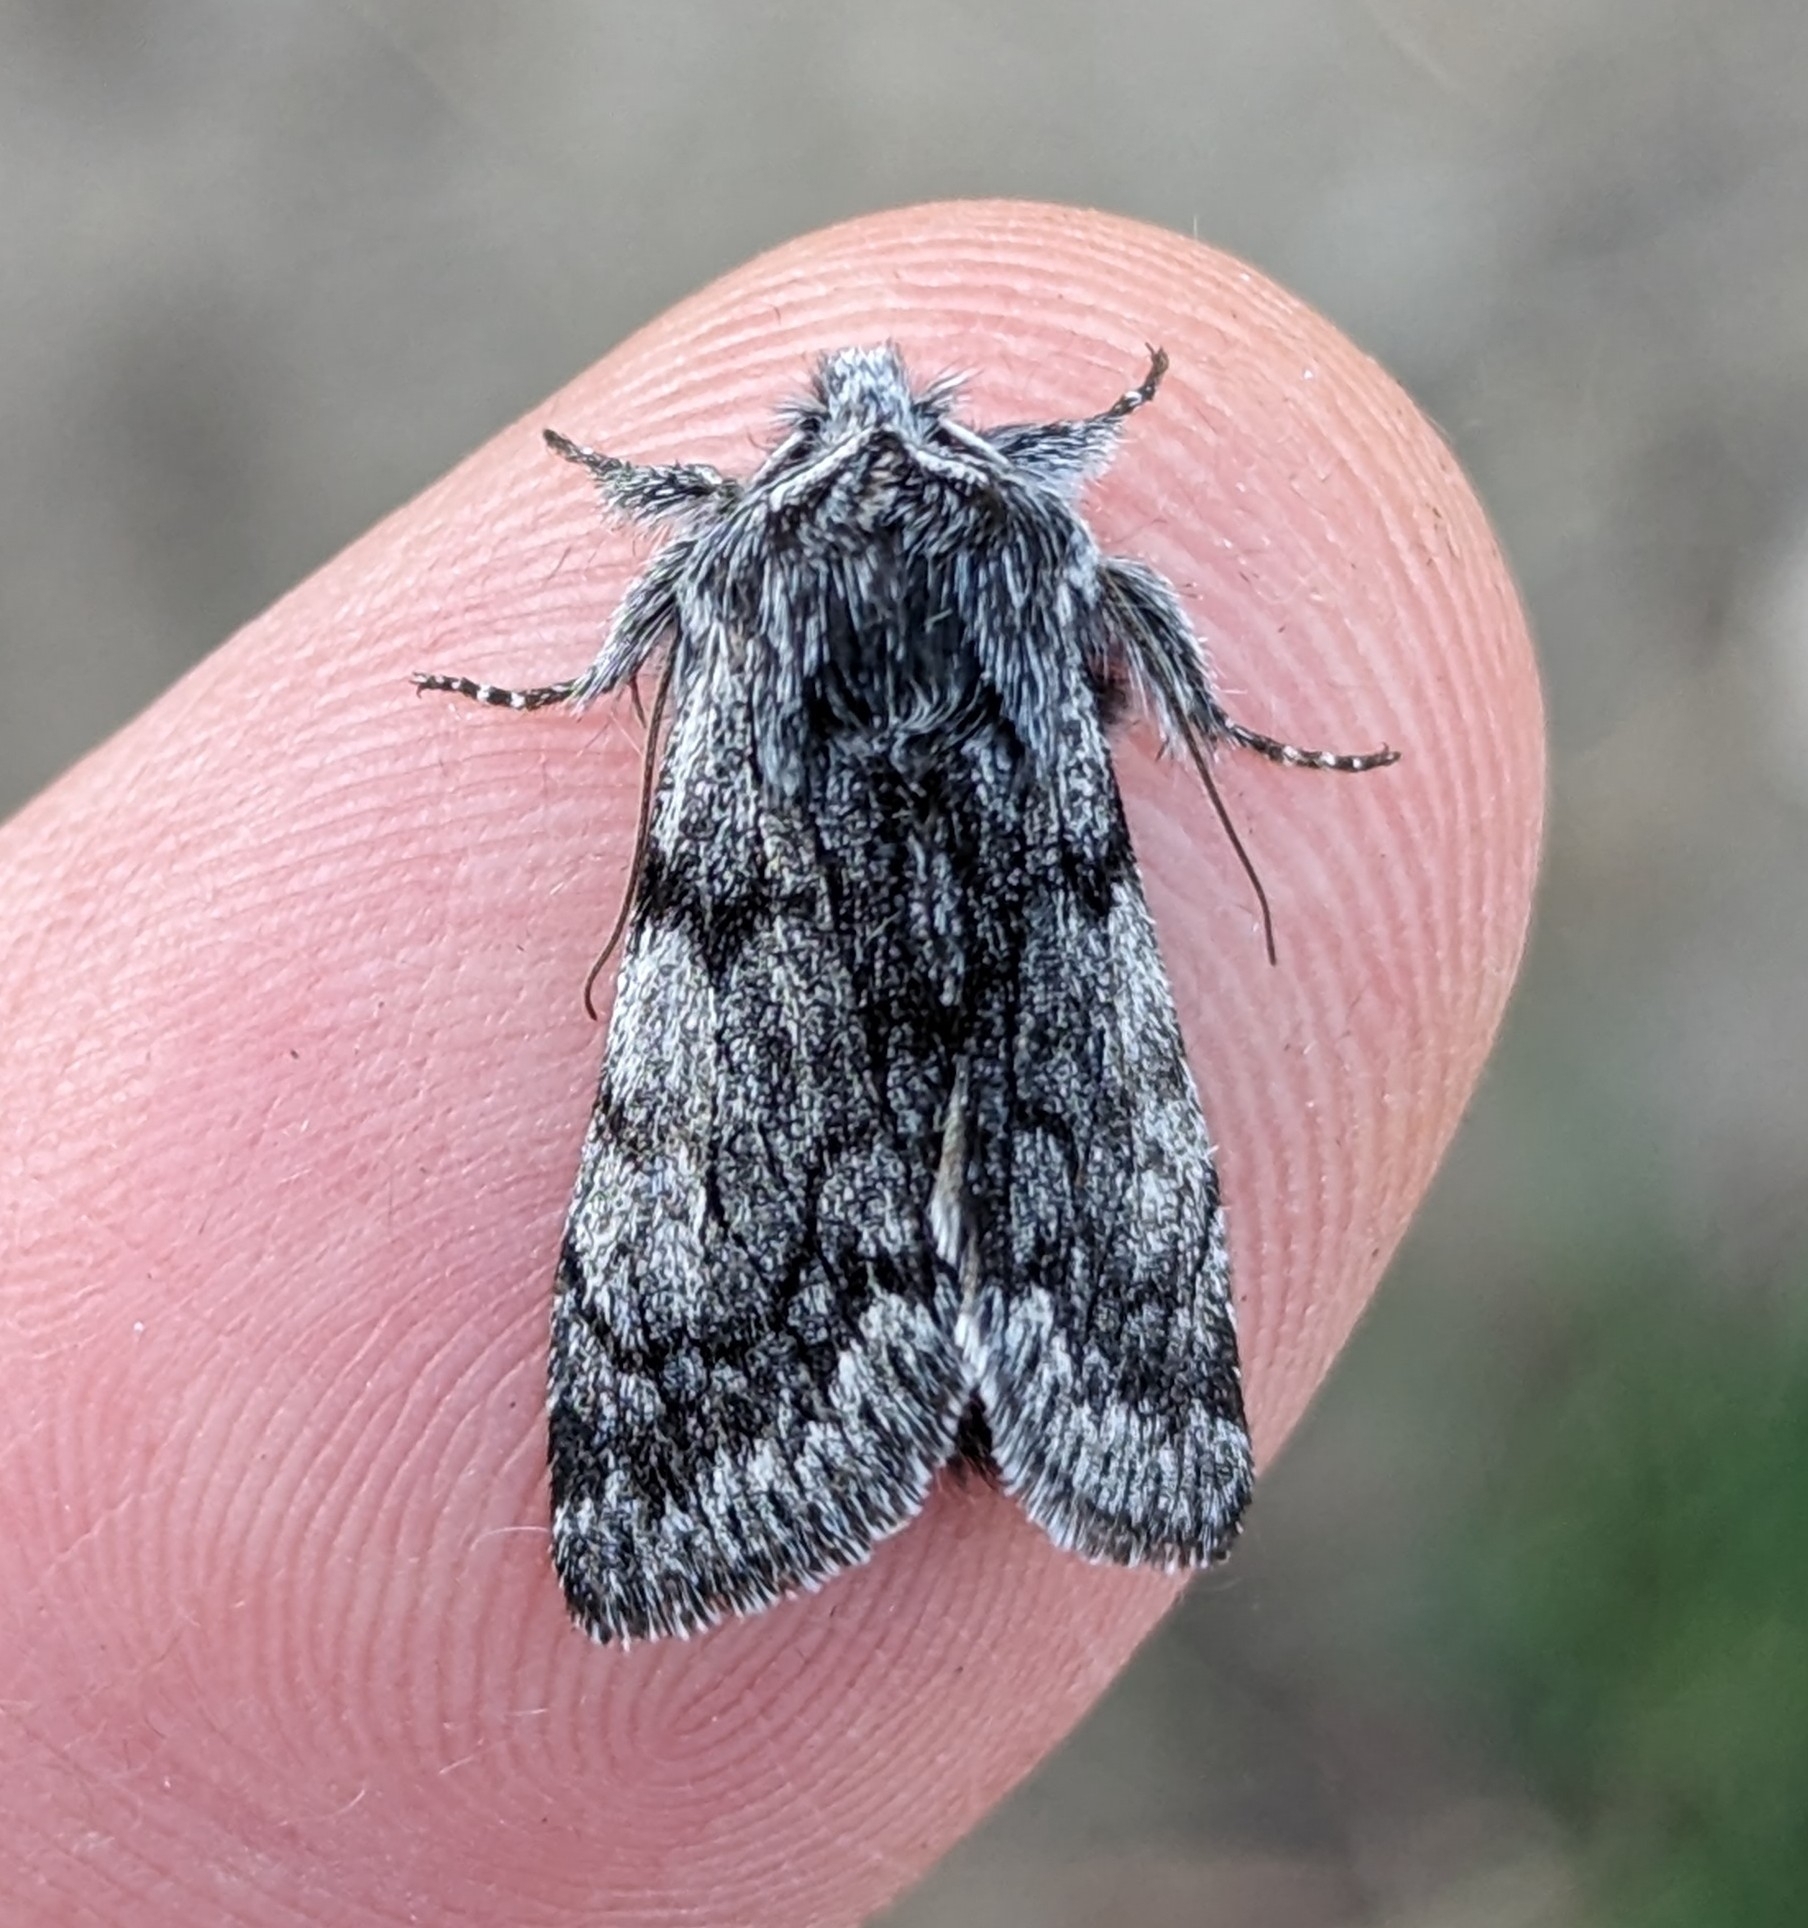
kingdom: Animalia
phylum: Arthropoda
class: Insecta
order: Lepidoptera
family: Noctuidae
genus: Pleromelloida
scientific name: Pleromelloida conserta
